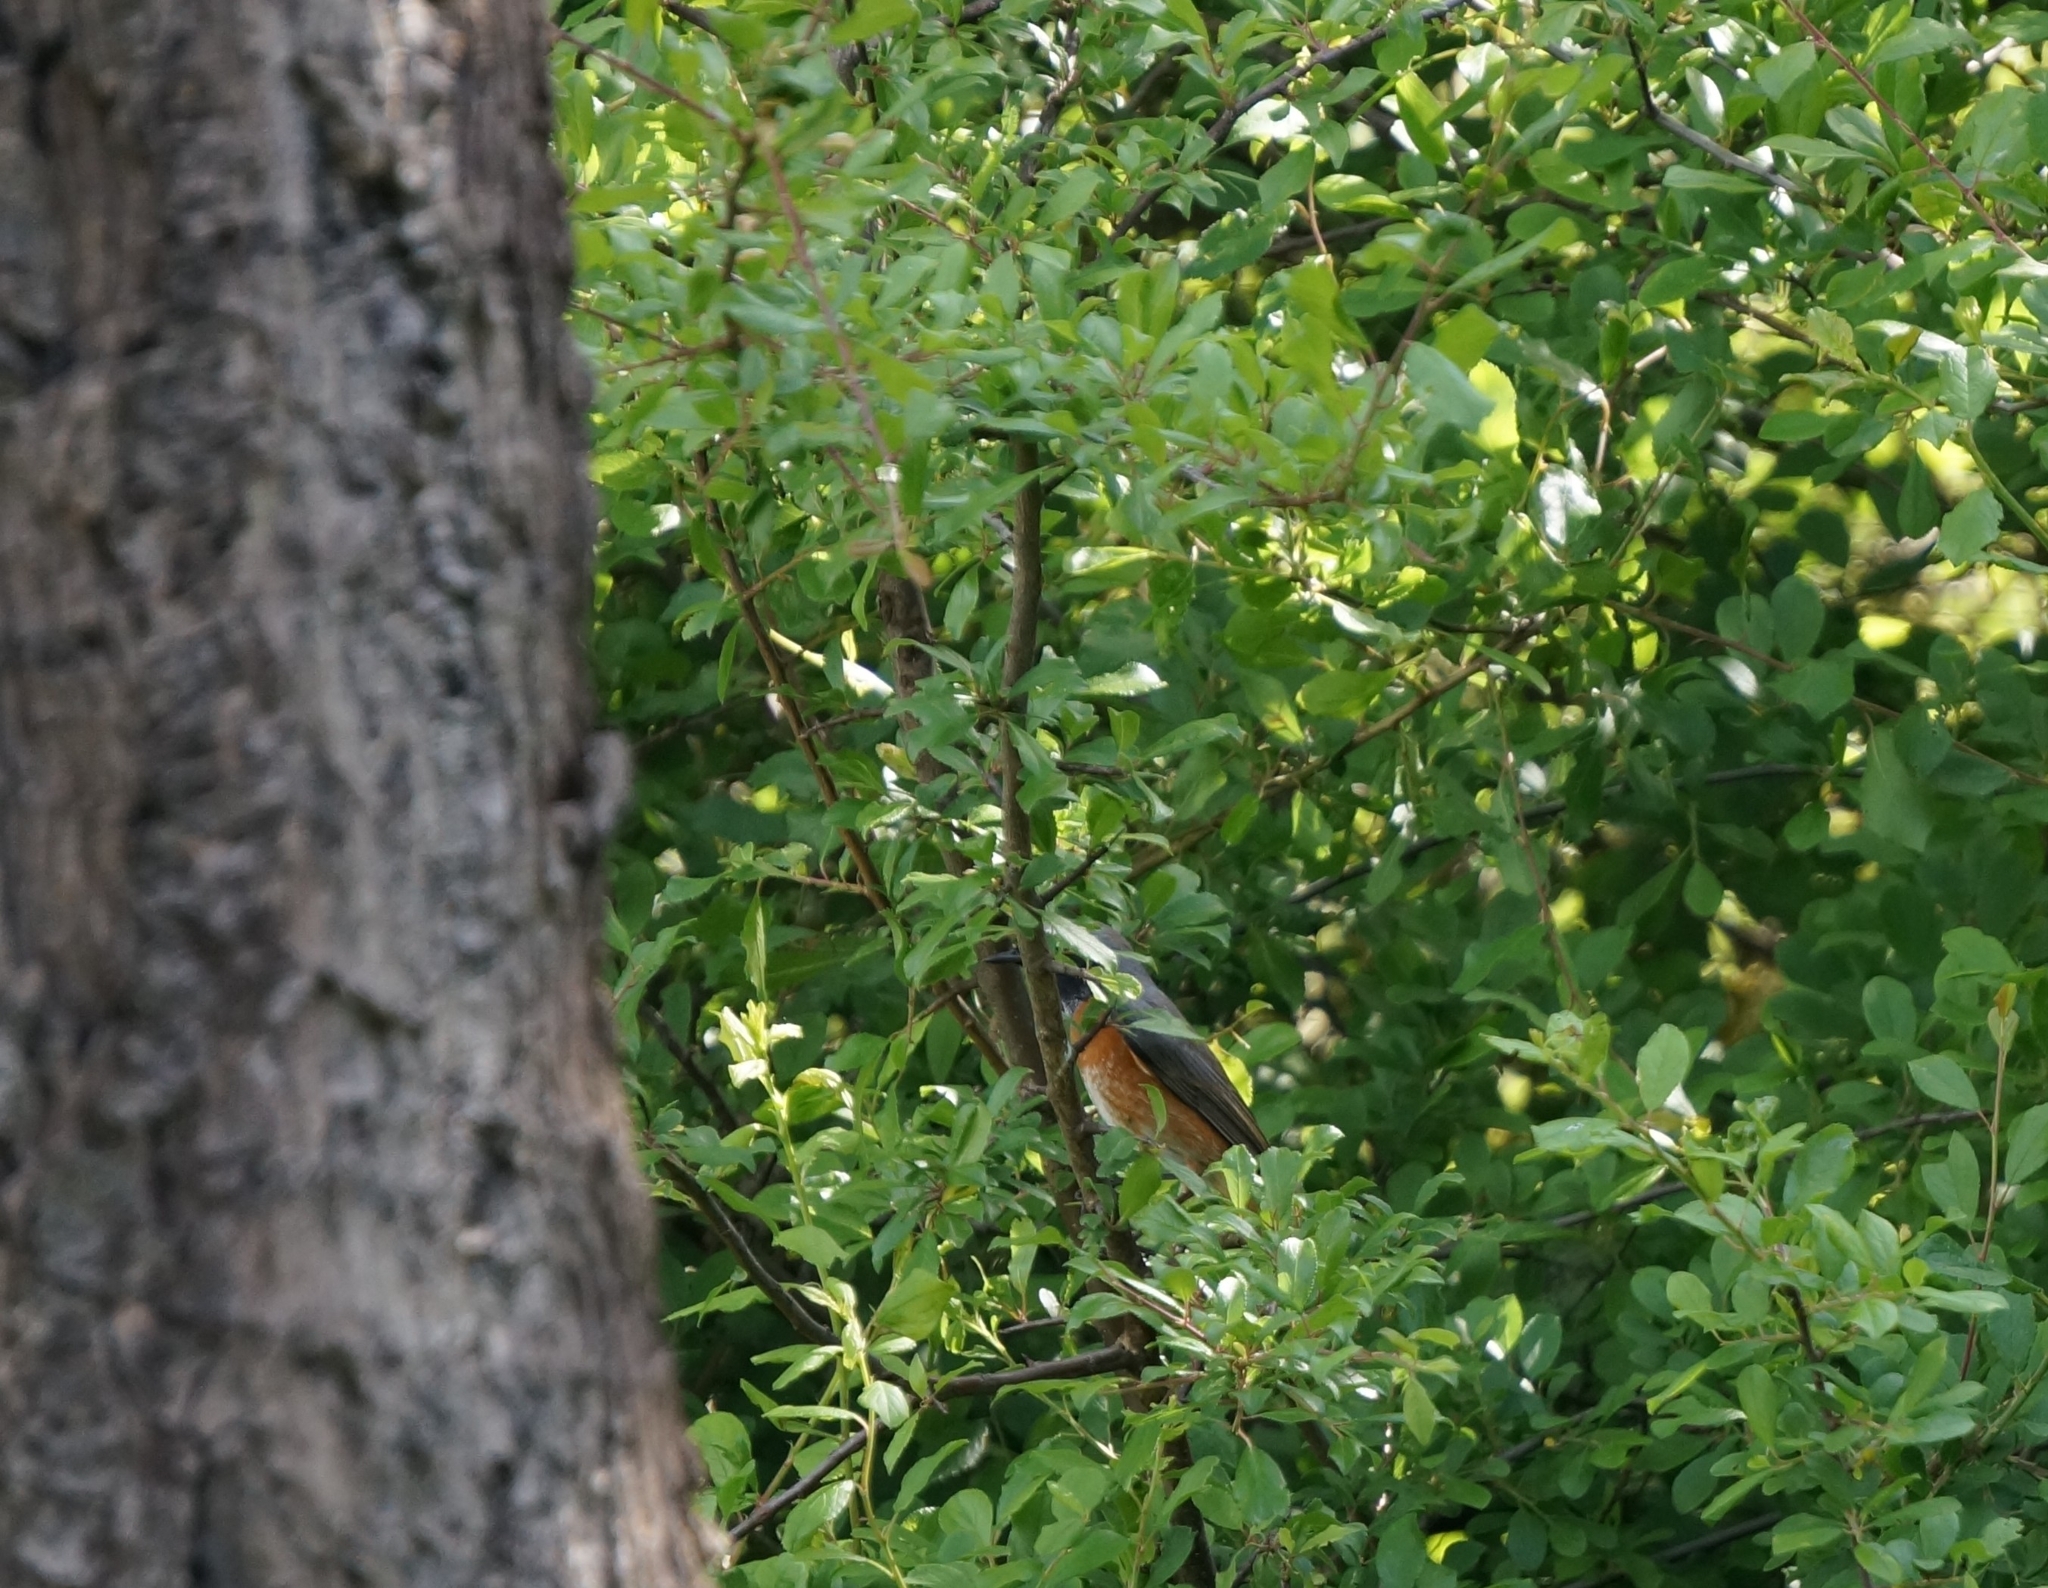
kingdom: Animalia
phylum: Chordata
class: Aves
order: Passeriformes
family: Muscicapidae
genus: Phoenicurus
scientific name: Phoenicurus phoenicurus
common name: Common redstart
